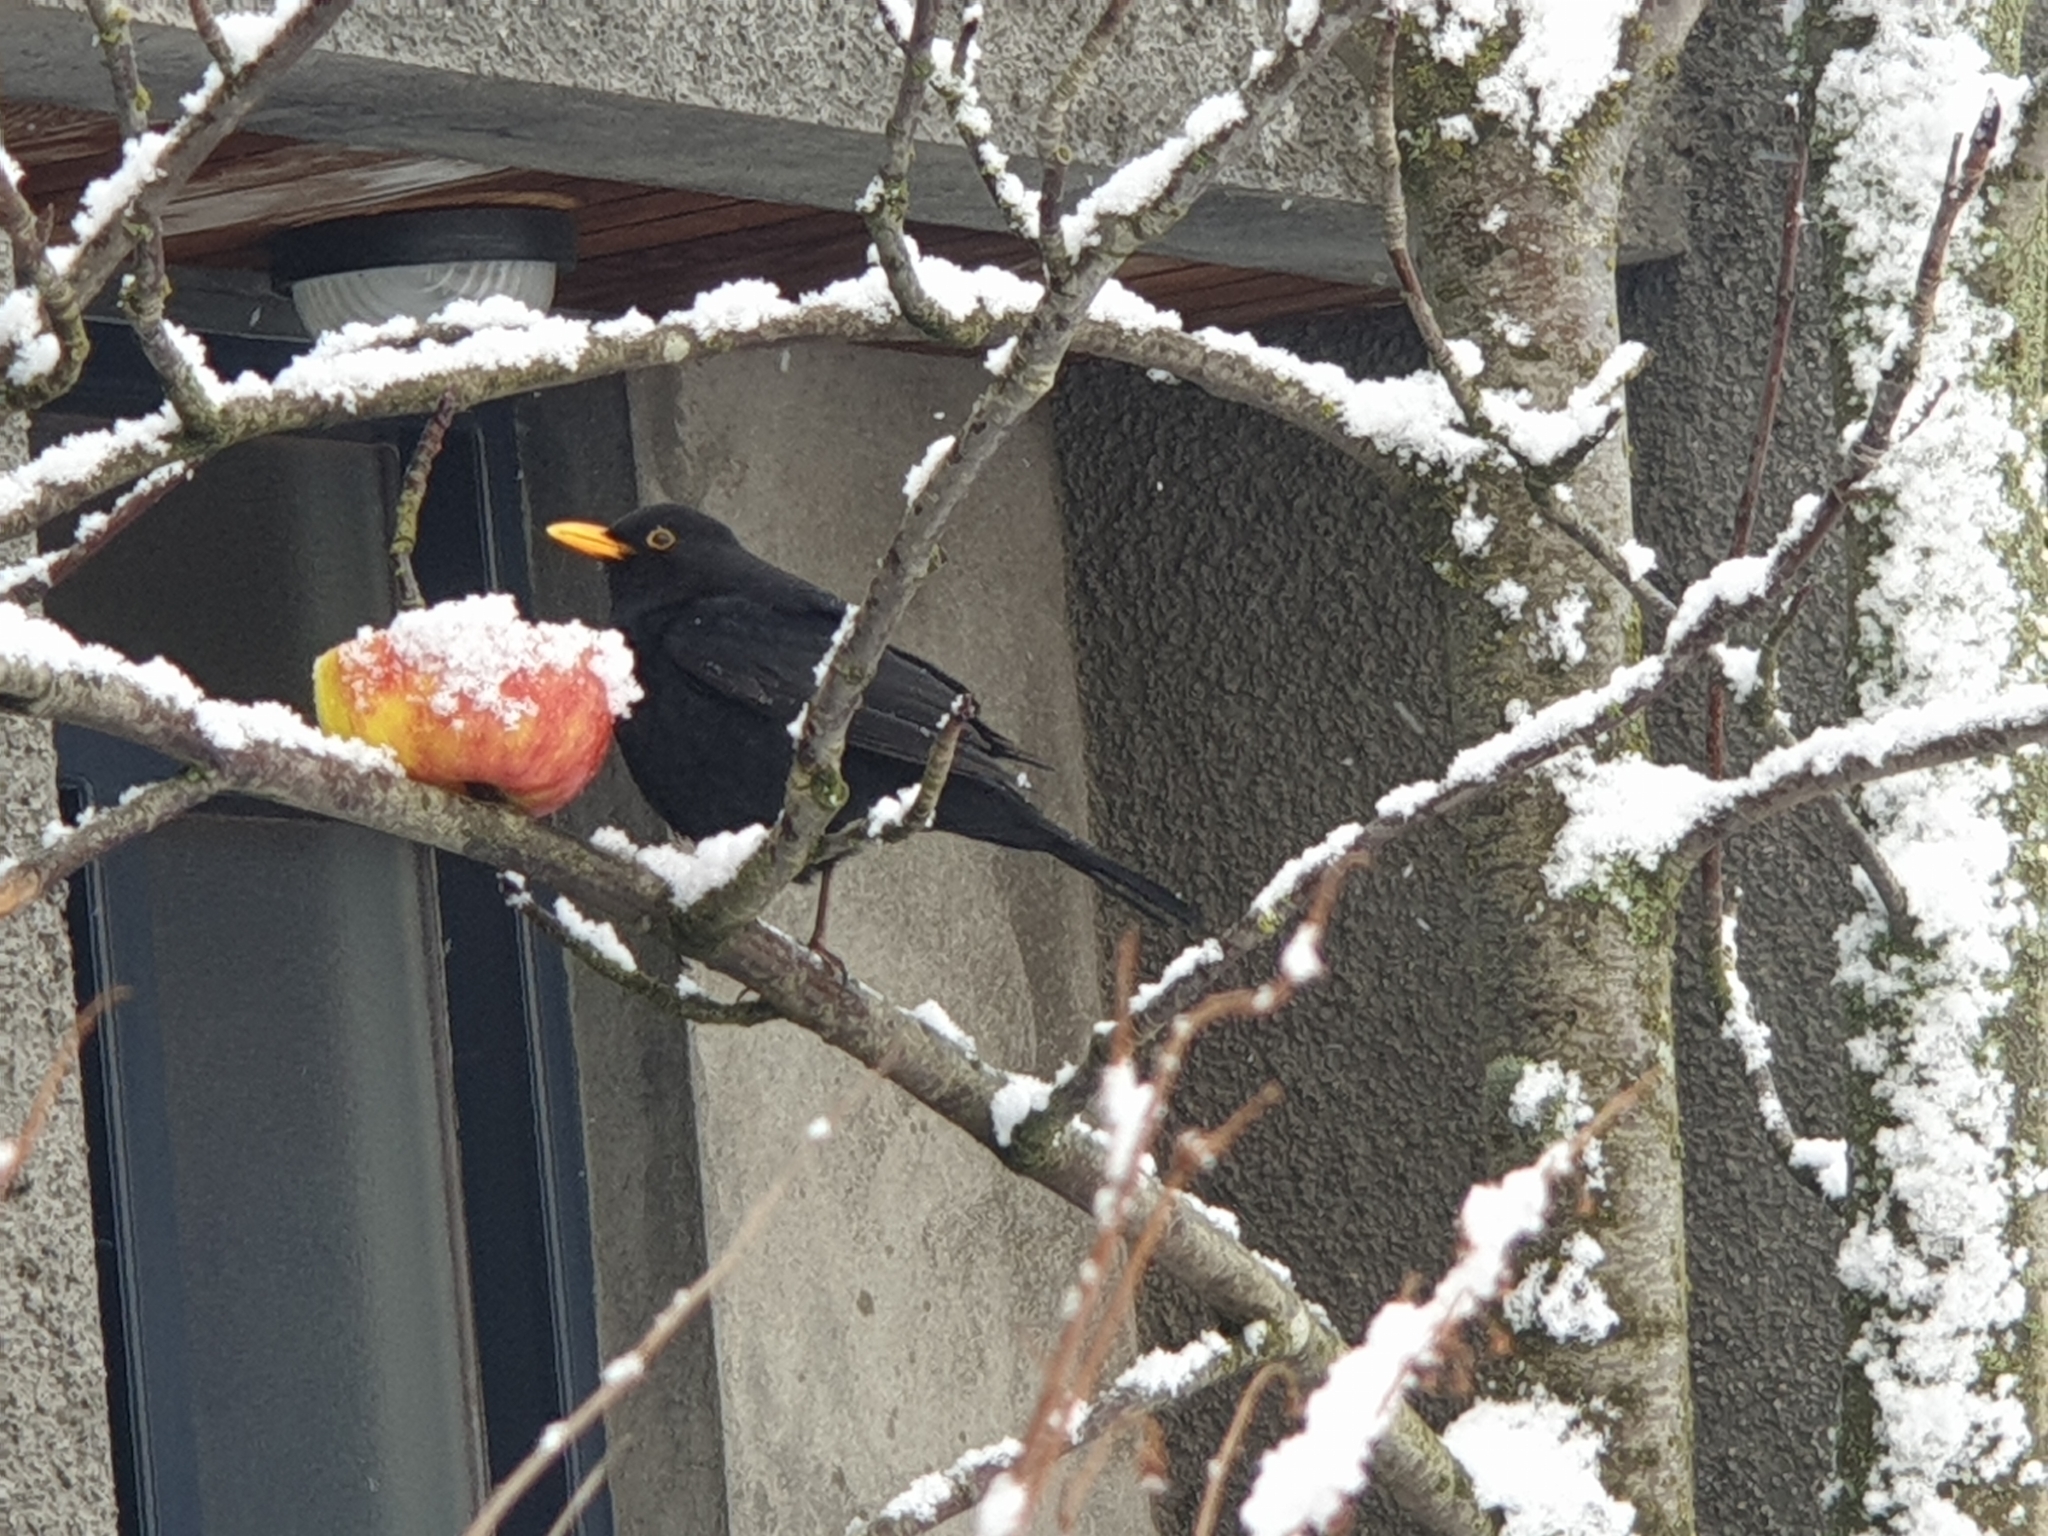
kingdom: Animalia
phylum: Chordata
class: Aves
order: Passeriformes
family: Turdidae
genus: Turdus
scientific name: Turdus merula
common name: Common blackbird
